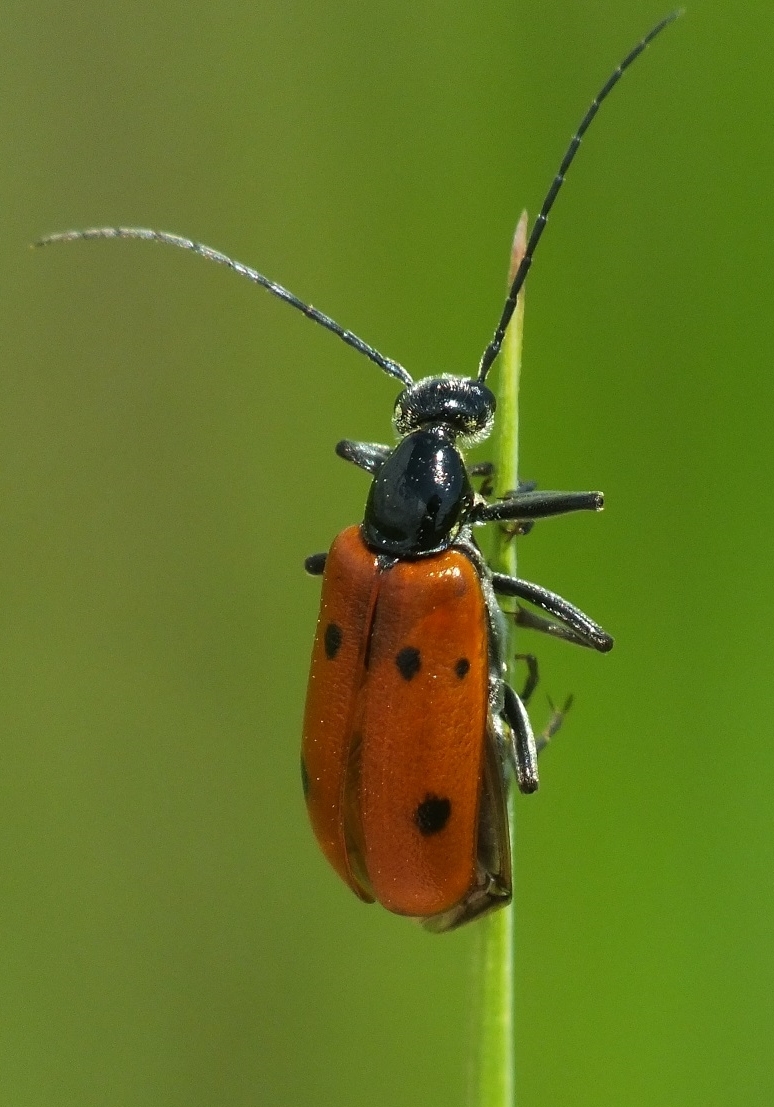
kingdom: Animalia
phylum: Arthropoda
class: Insecta
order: Coleoptera
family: Meloidae
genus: Stenodera
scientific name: Stenodera caucasica
